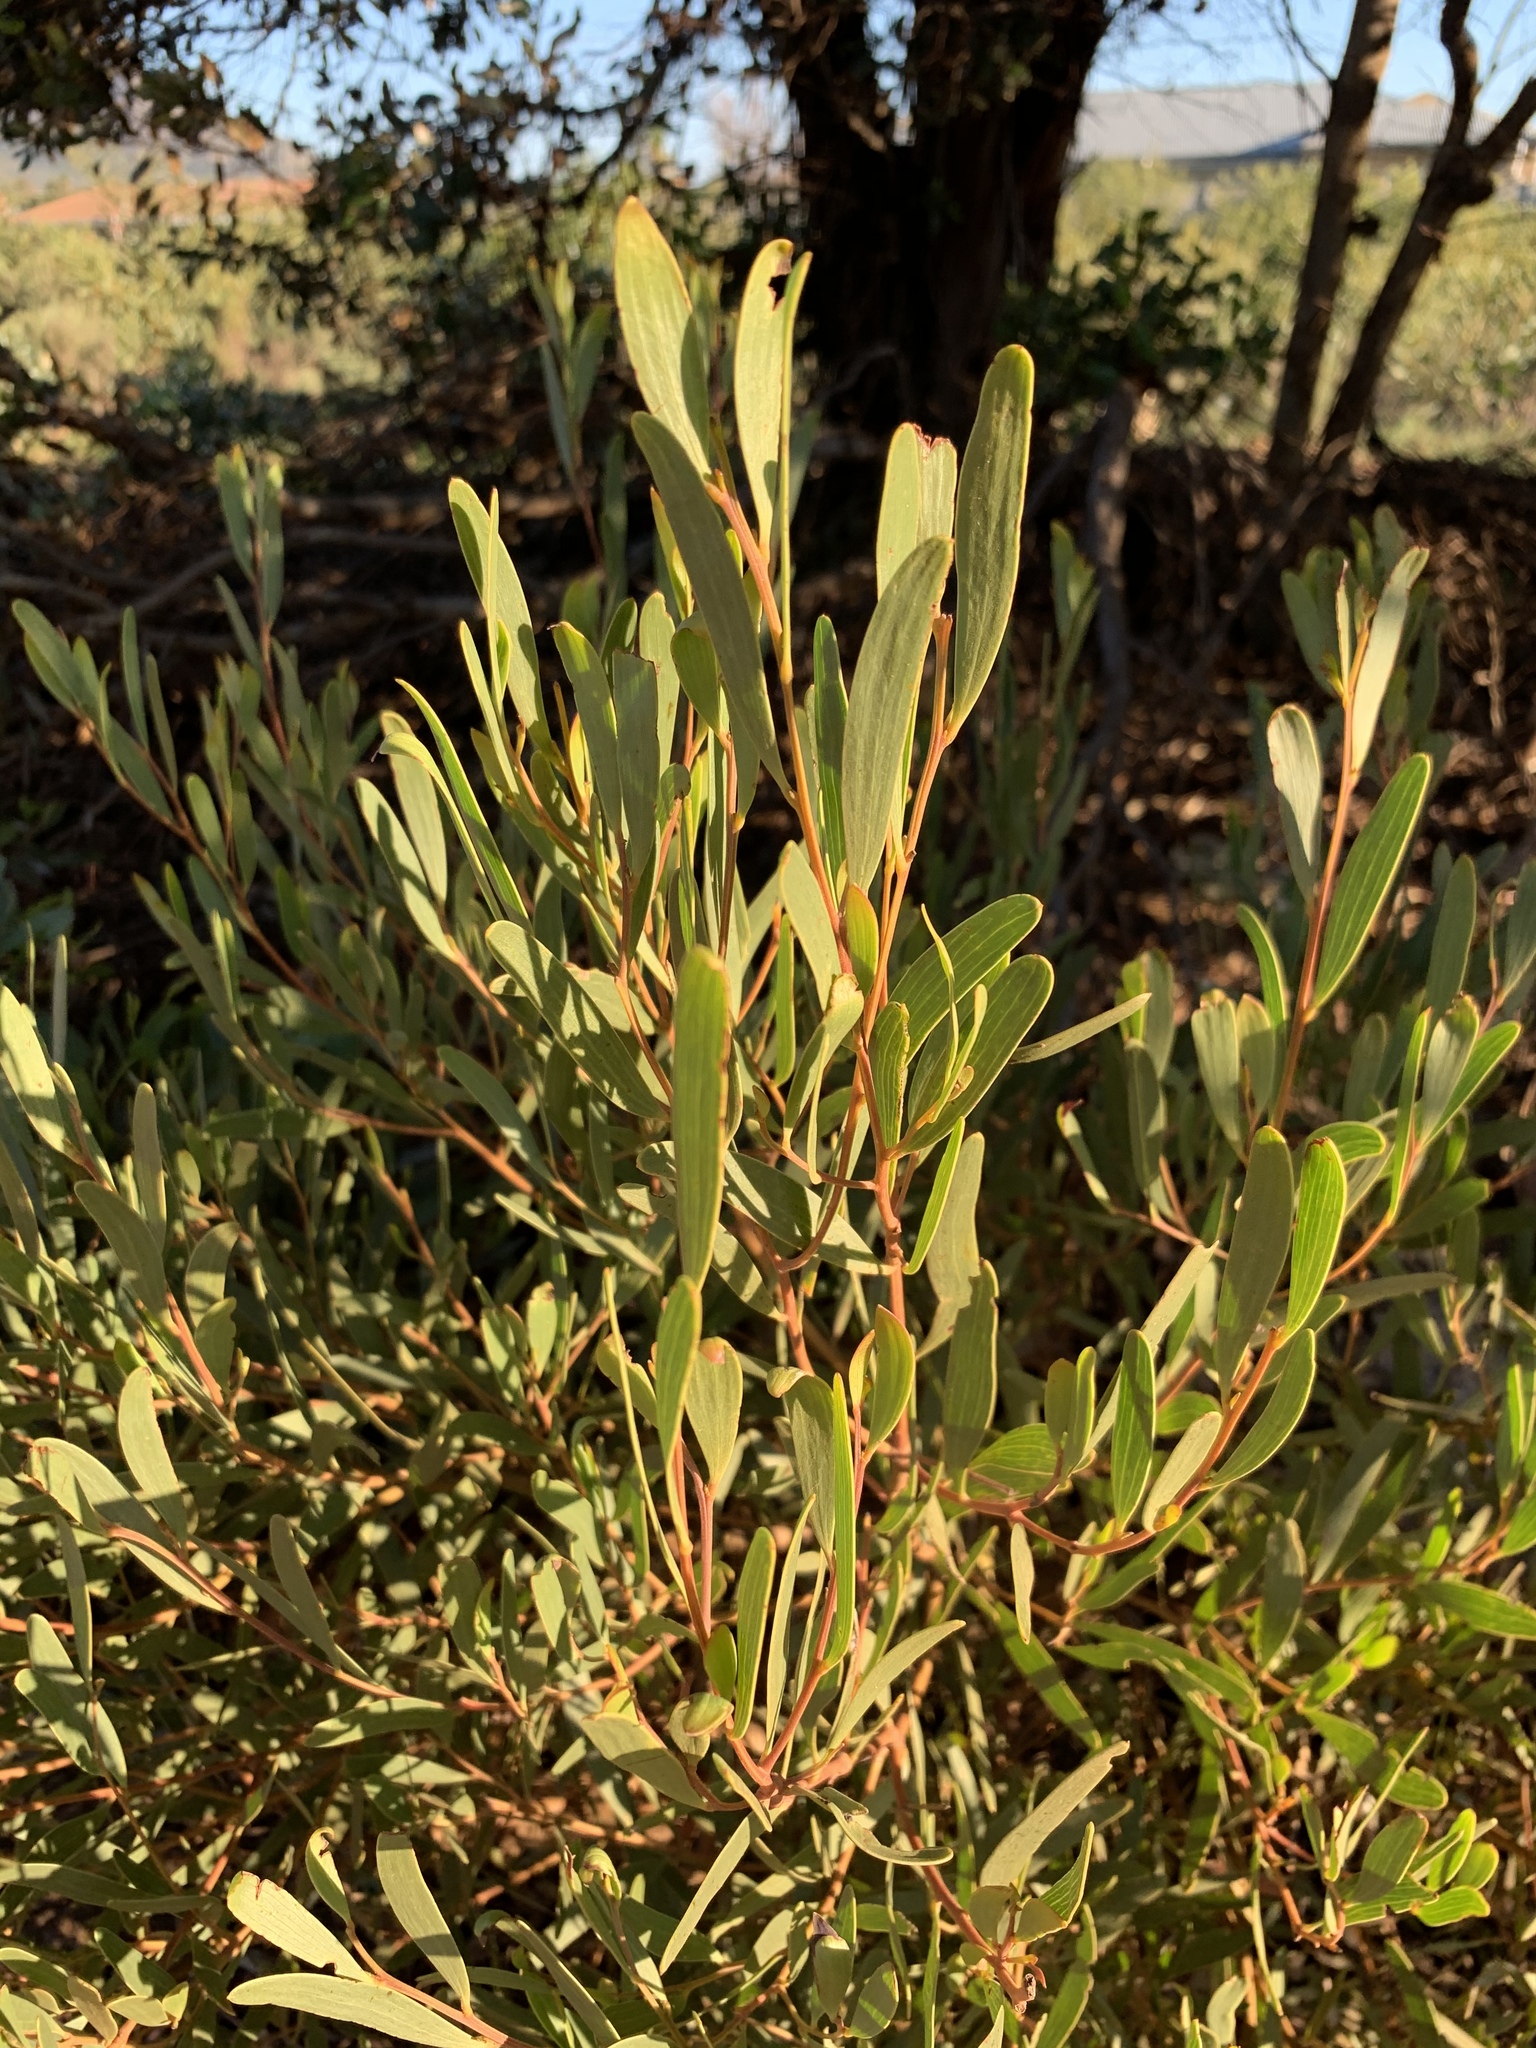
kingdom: Plantae
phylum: Tracheophyta
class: Magnoliopsida
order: Fabales
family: Fabaceae
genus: Acacia
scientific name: Acacia cyclops
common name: Coastal wattle
